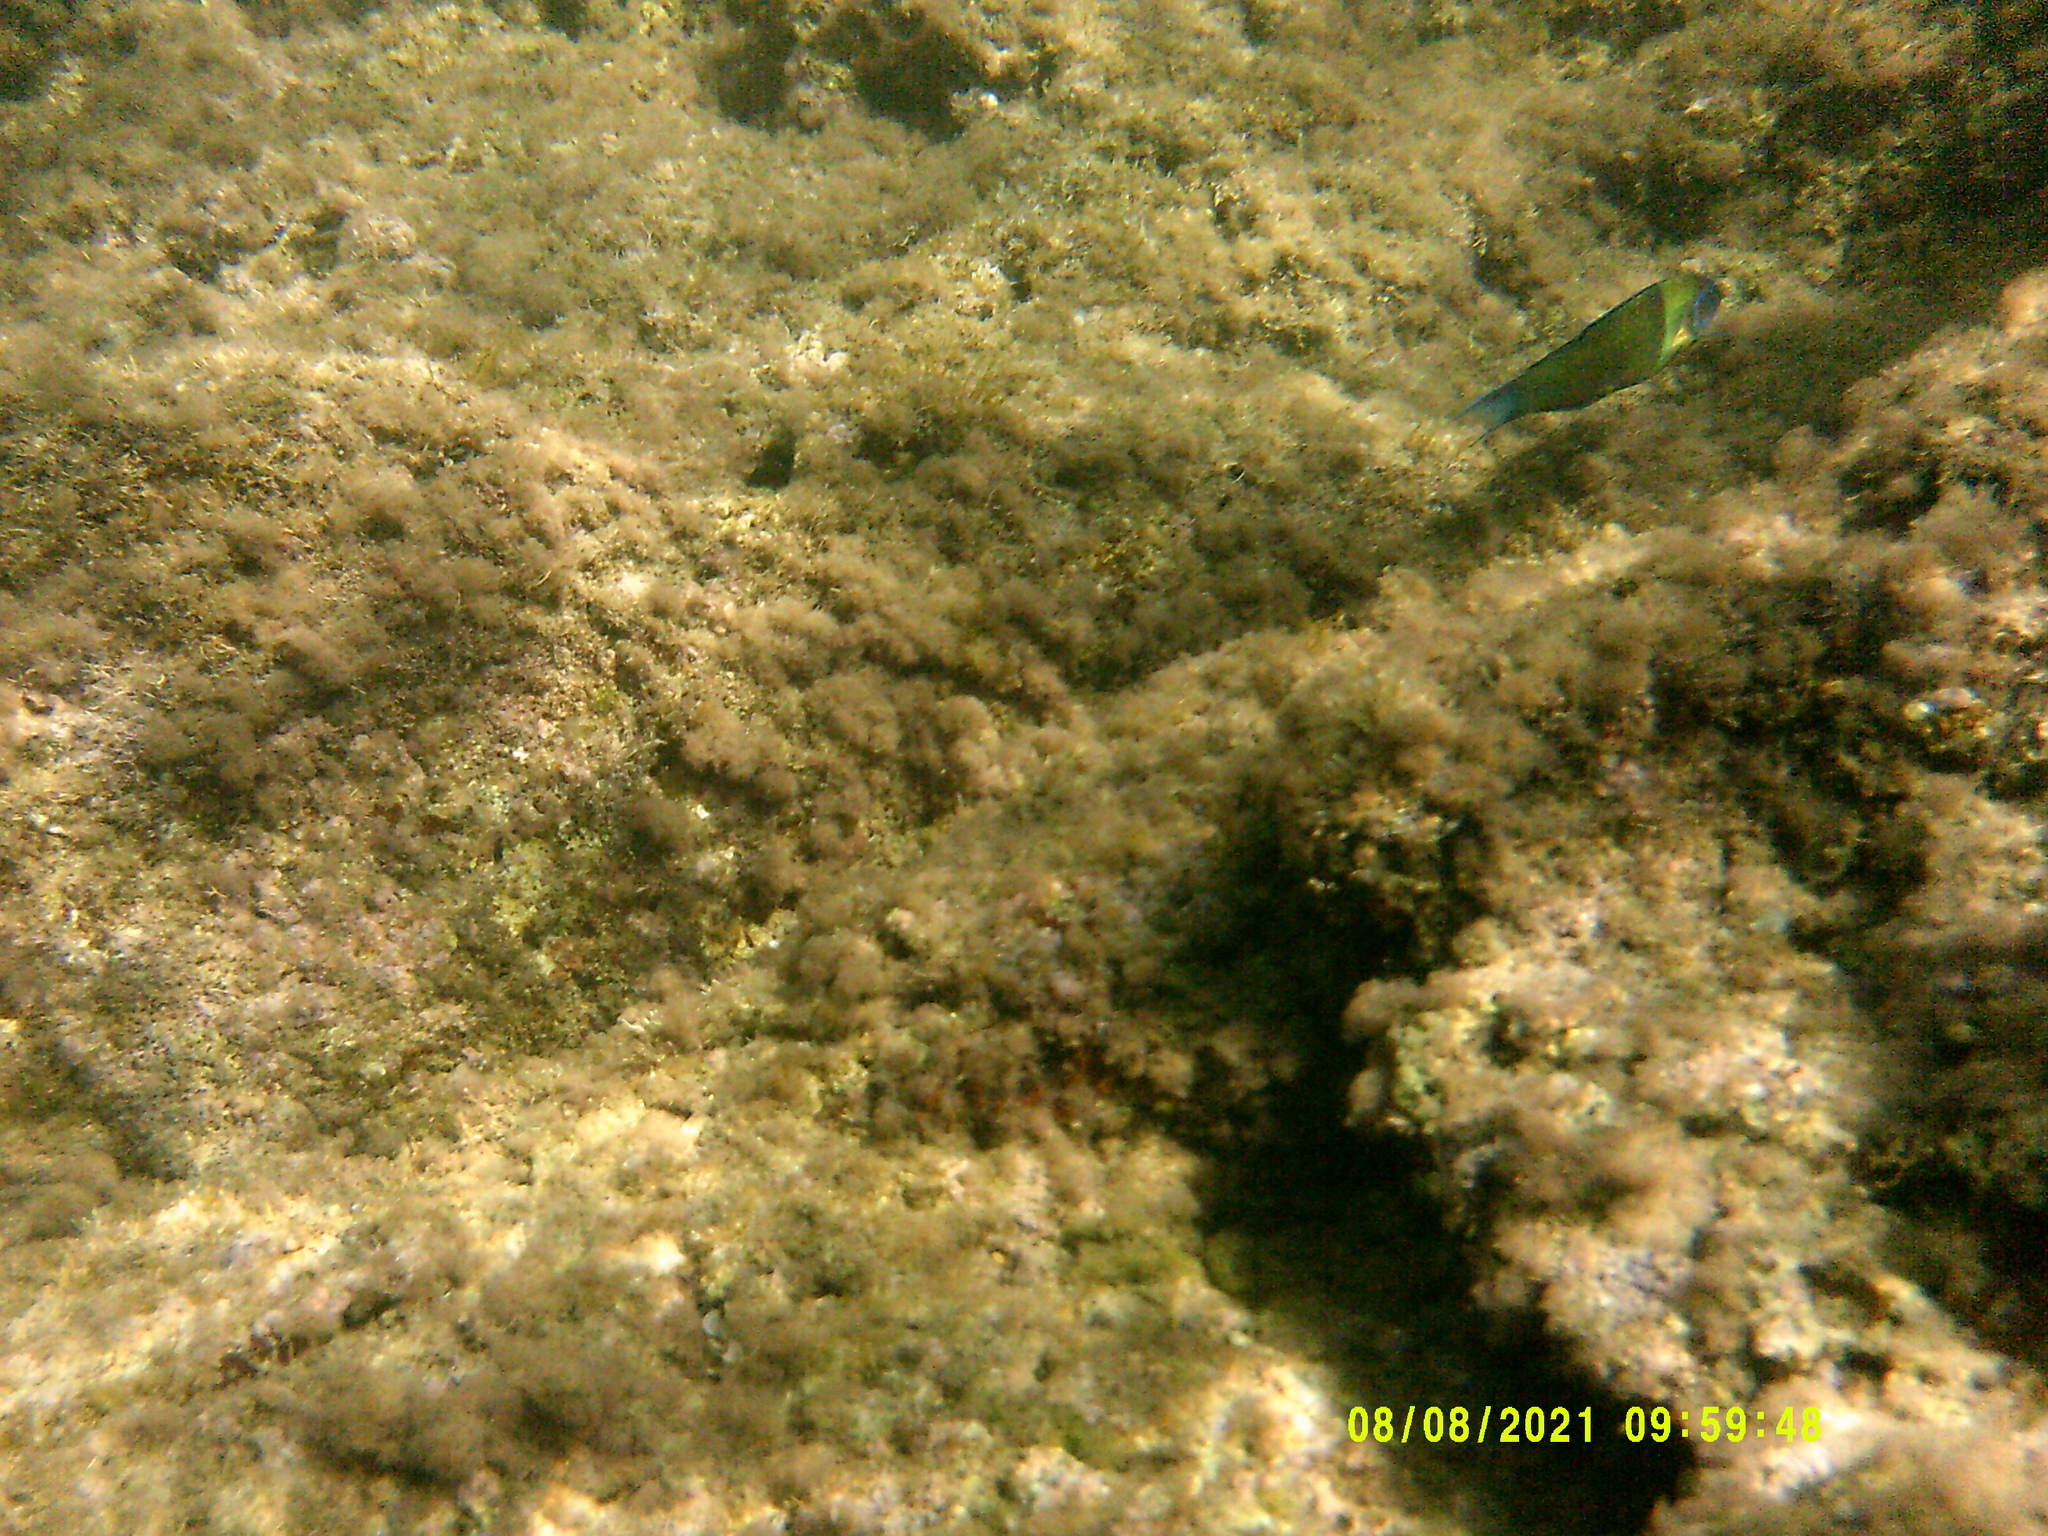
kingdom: Animalia
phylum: Chordata
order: Perciformes
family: Labridae
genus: Thalassoma
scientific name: Thalassoma pavo
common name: Ornate wrasse
